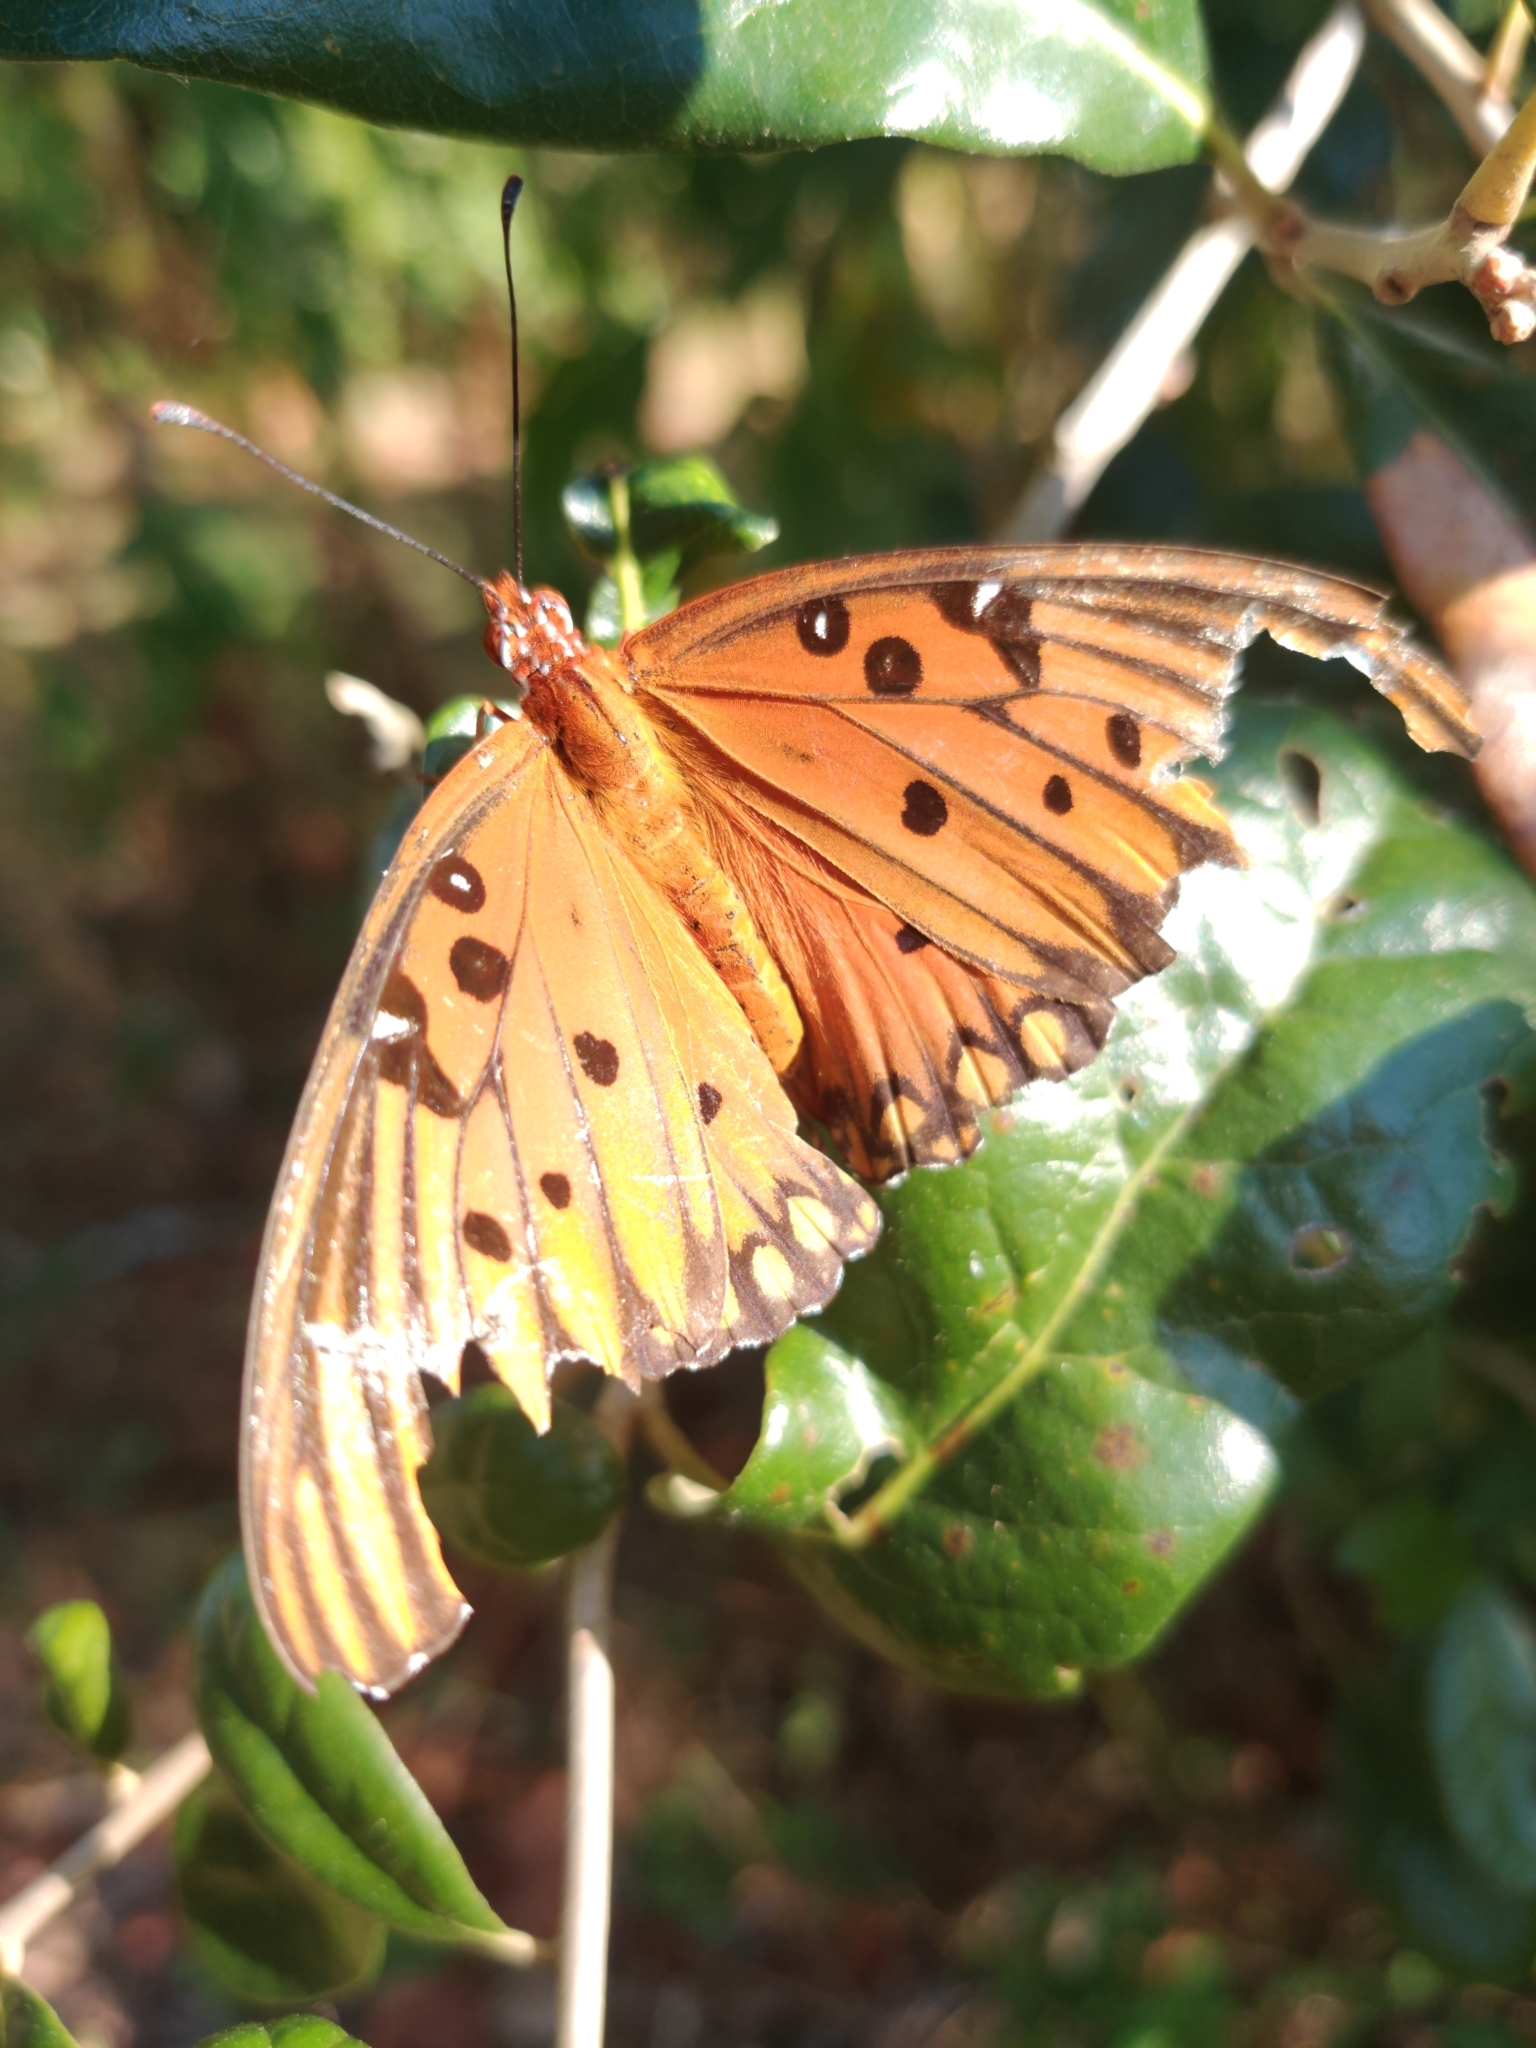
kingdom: Animalia
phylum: Arthropoda
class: Insecta
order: Lepidoptera
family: Nymphalidae
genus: Dione
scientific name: Dione vanillae
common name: Gulf fritillary
